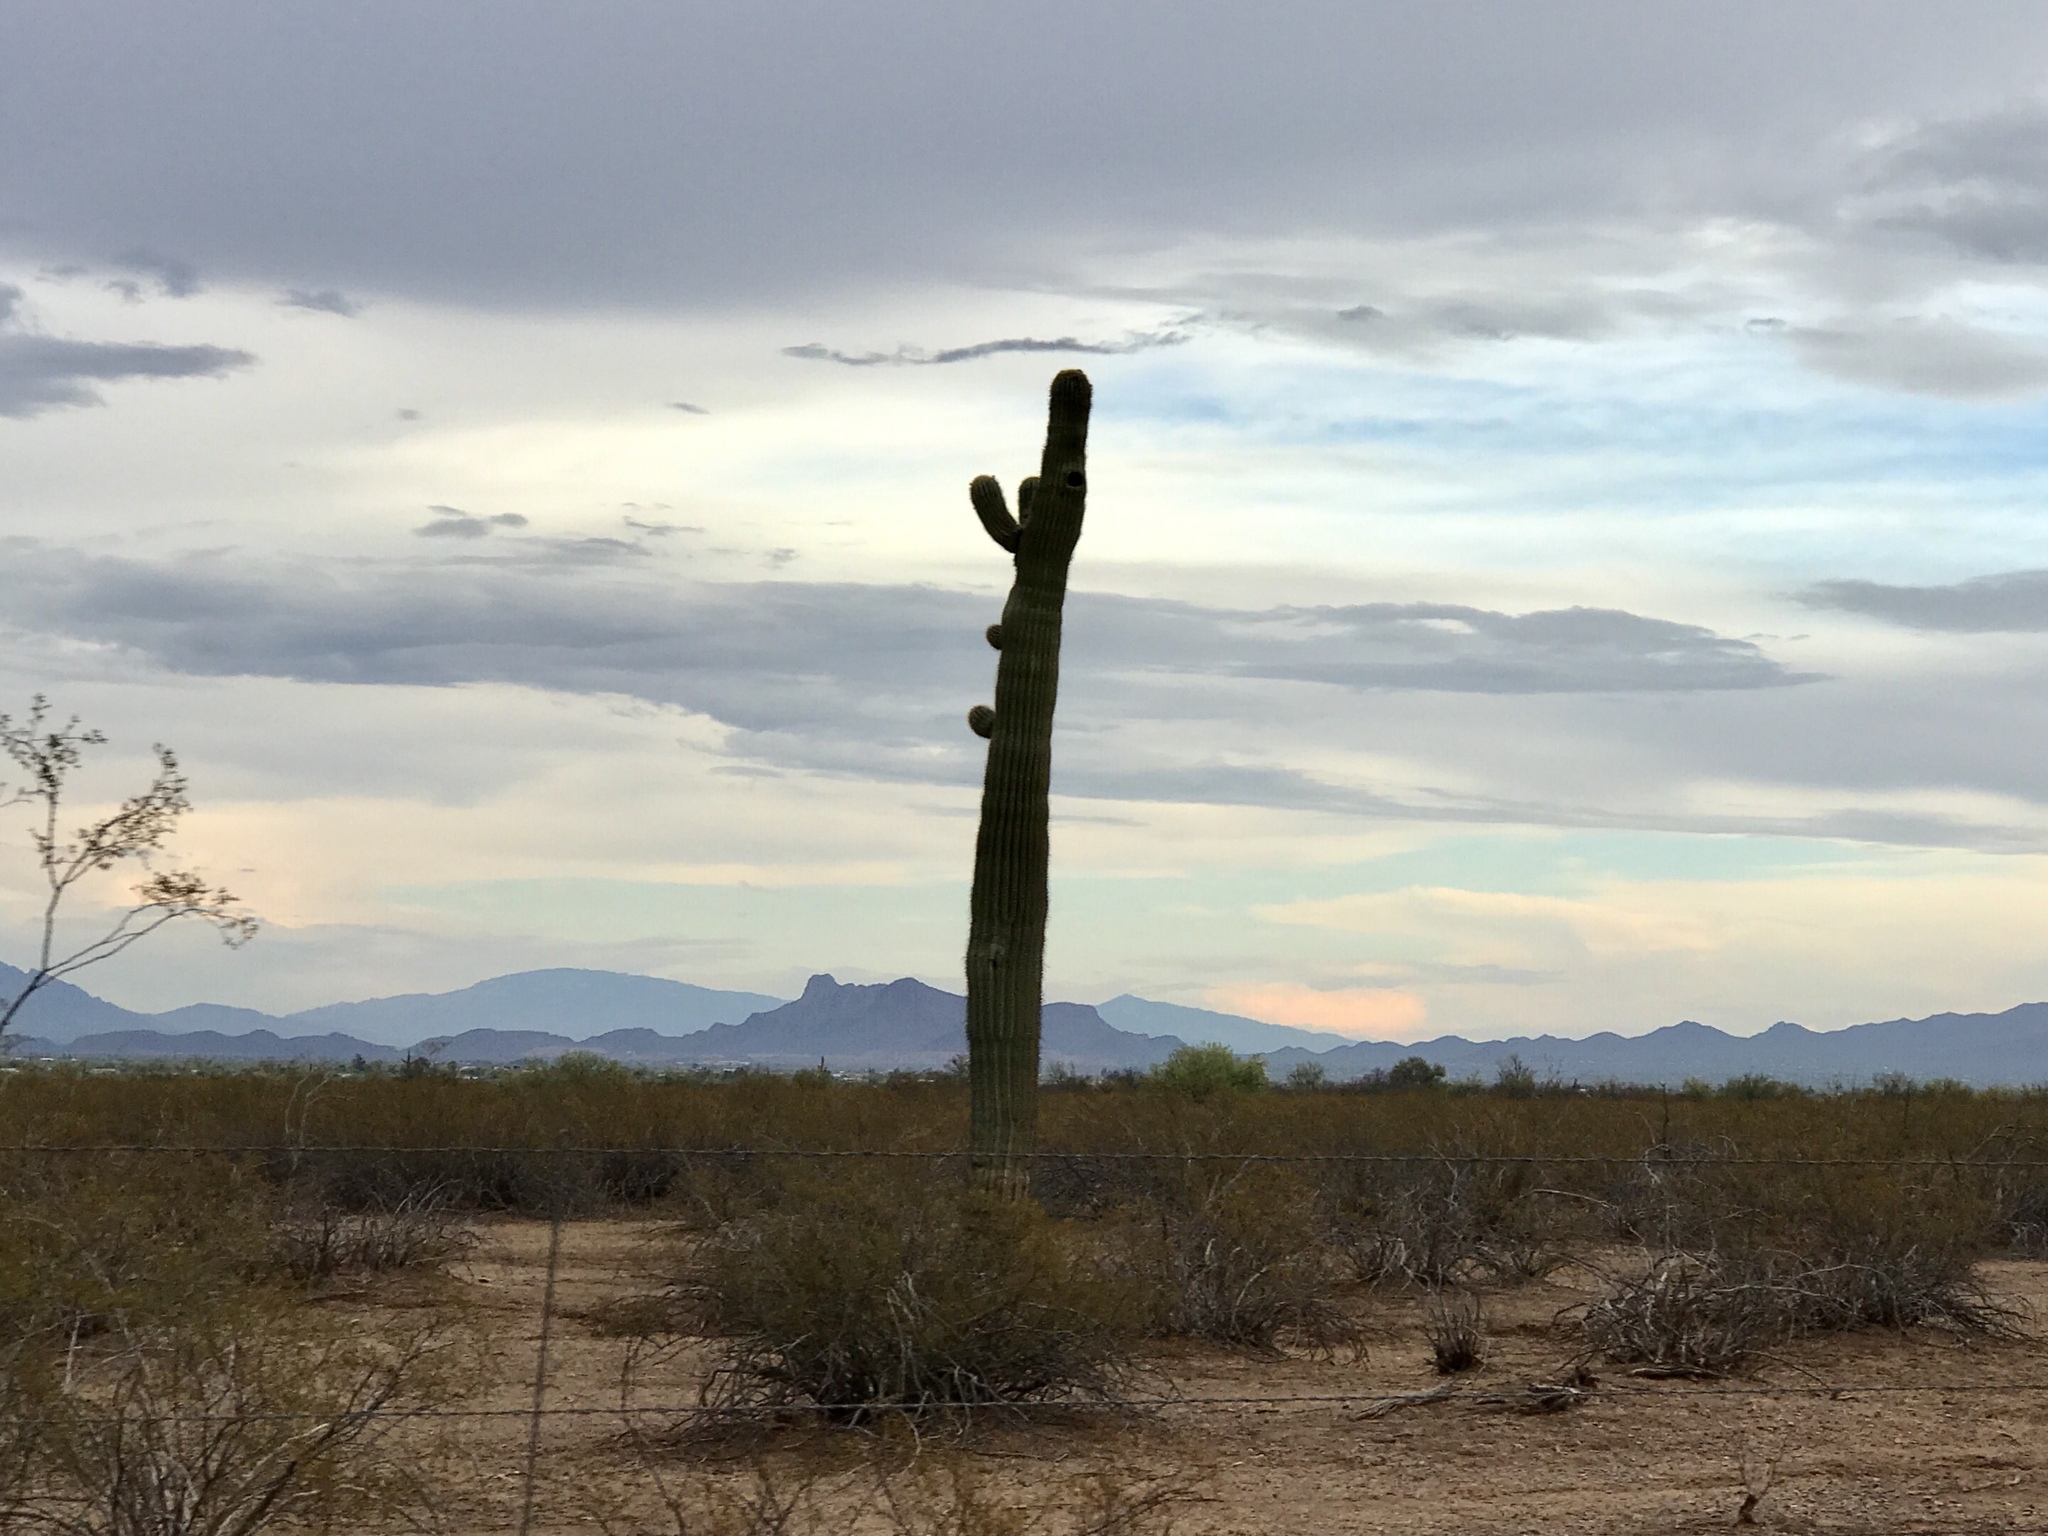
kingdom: Plantae
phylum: Tracheophyta
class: Magnoliopsida
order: Caryophyllales
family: Cactaceae
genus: Carnegiea
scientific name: Carnegiea gigantea
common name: Saguaro
